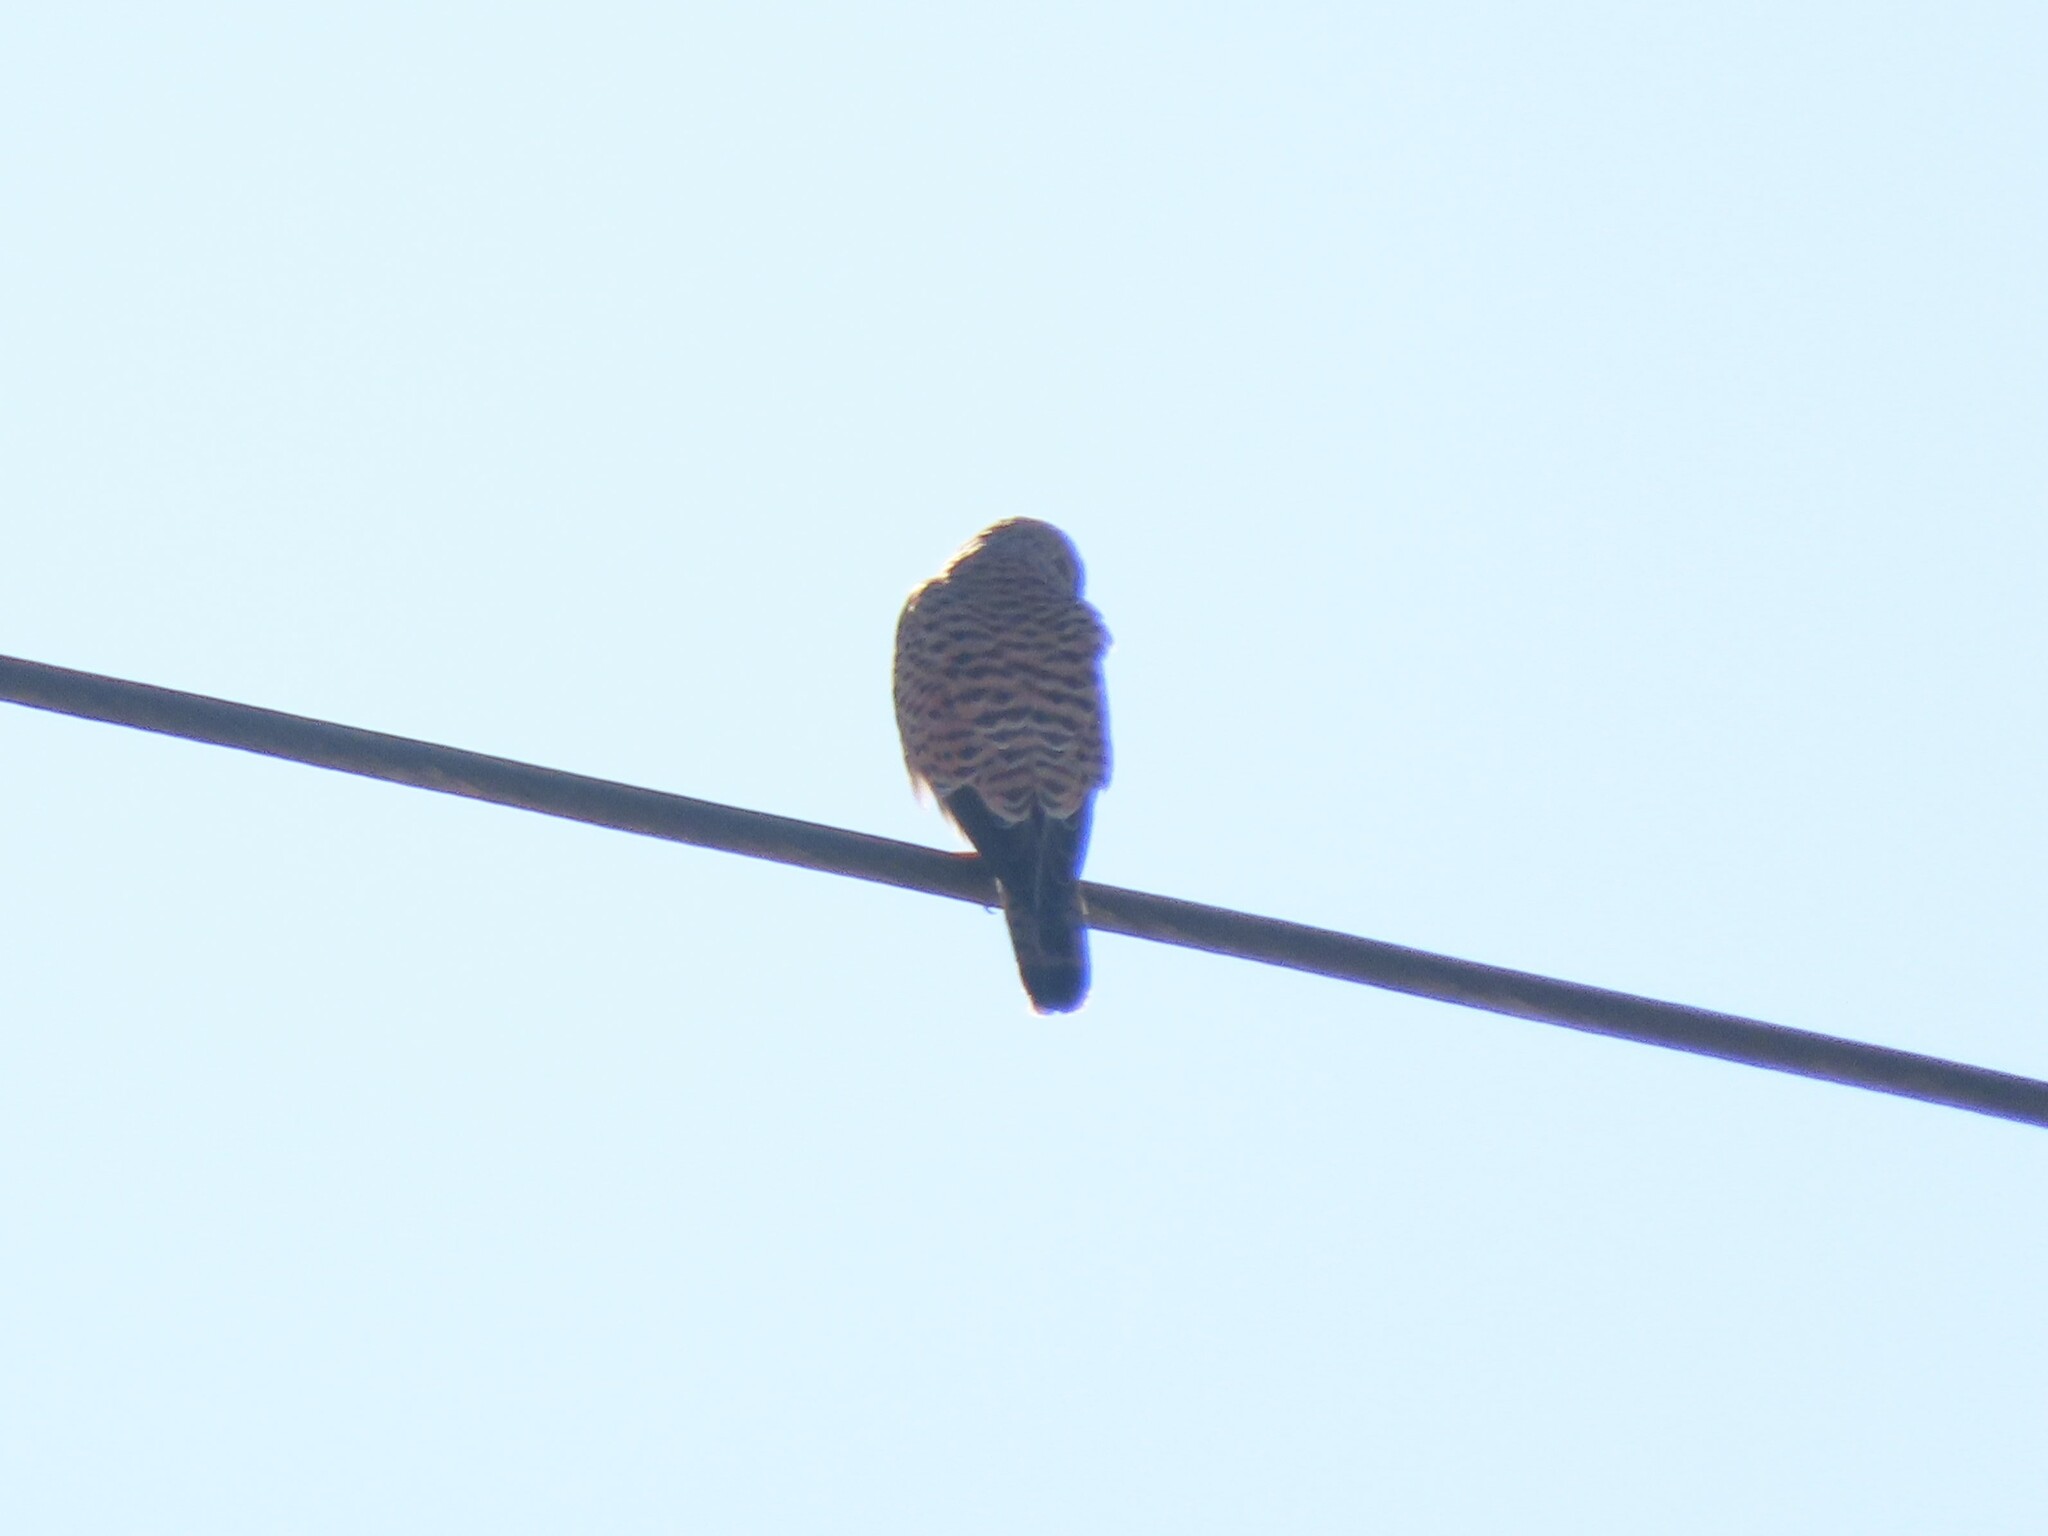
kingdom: Animalia
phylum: Chordata
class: Aves
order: Falconiformes
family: Falconidae
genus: Falco
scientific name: Falco tinnunculus
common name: Common kestrel
